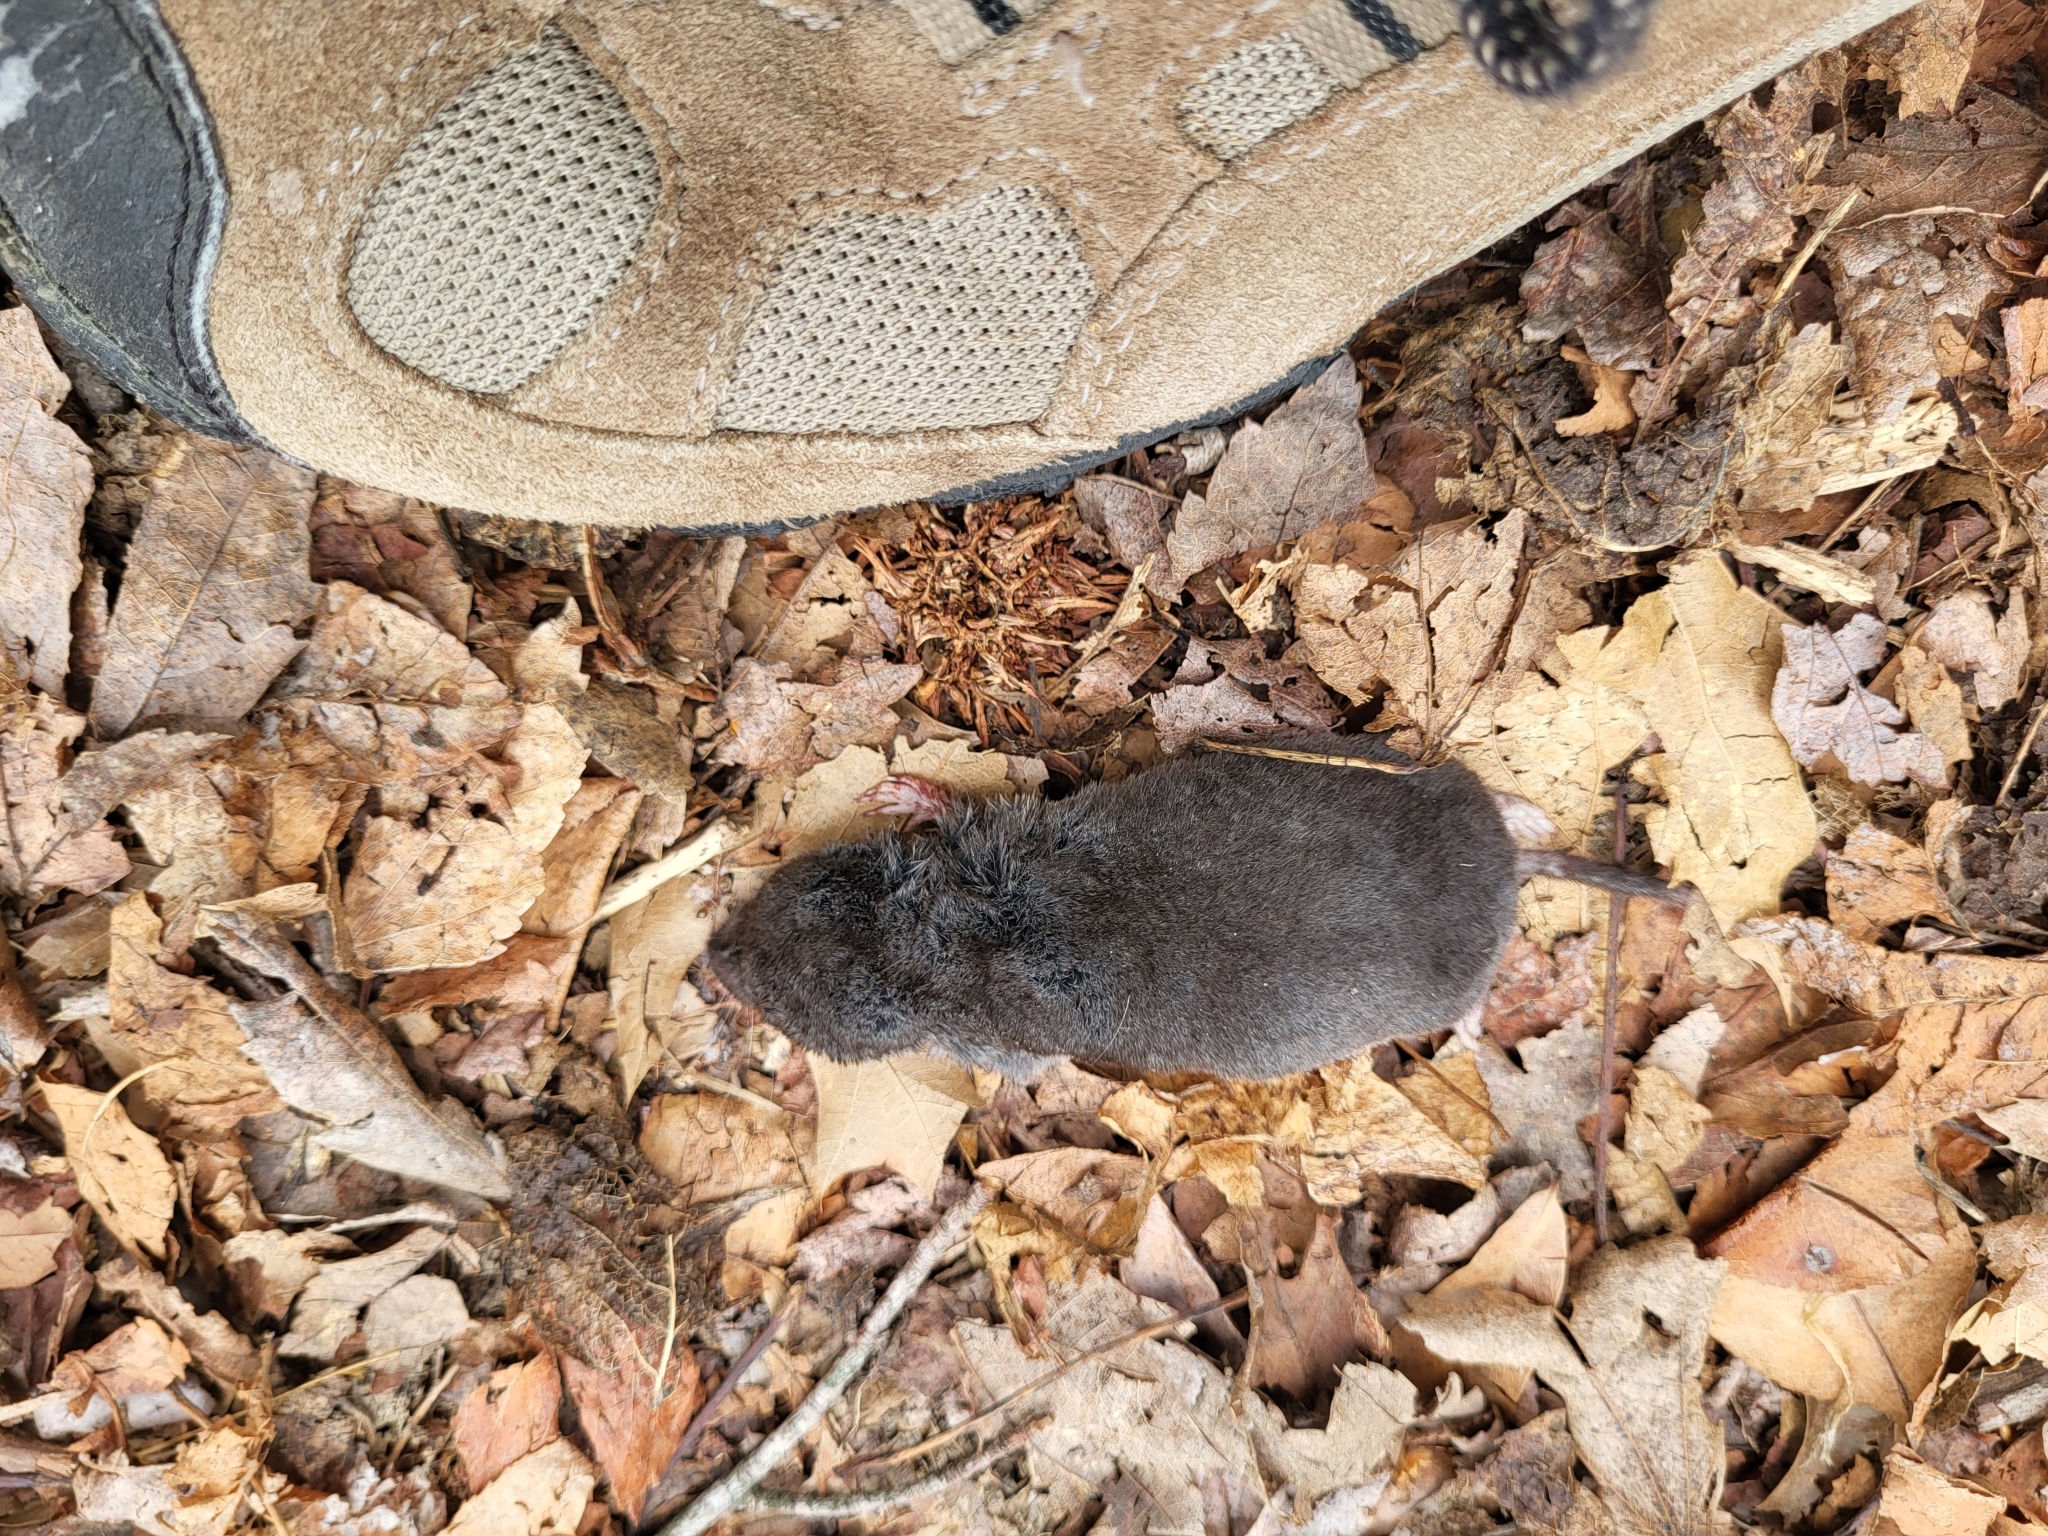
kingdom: Animalia
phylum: Chordata
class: Mammalia
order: Soricomorpha
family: Soricidae
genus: Blarina
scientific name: Blarina brevicauda
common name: Northern short-tailed shrew
